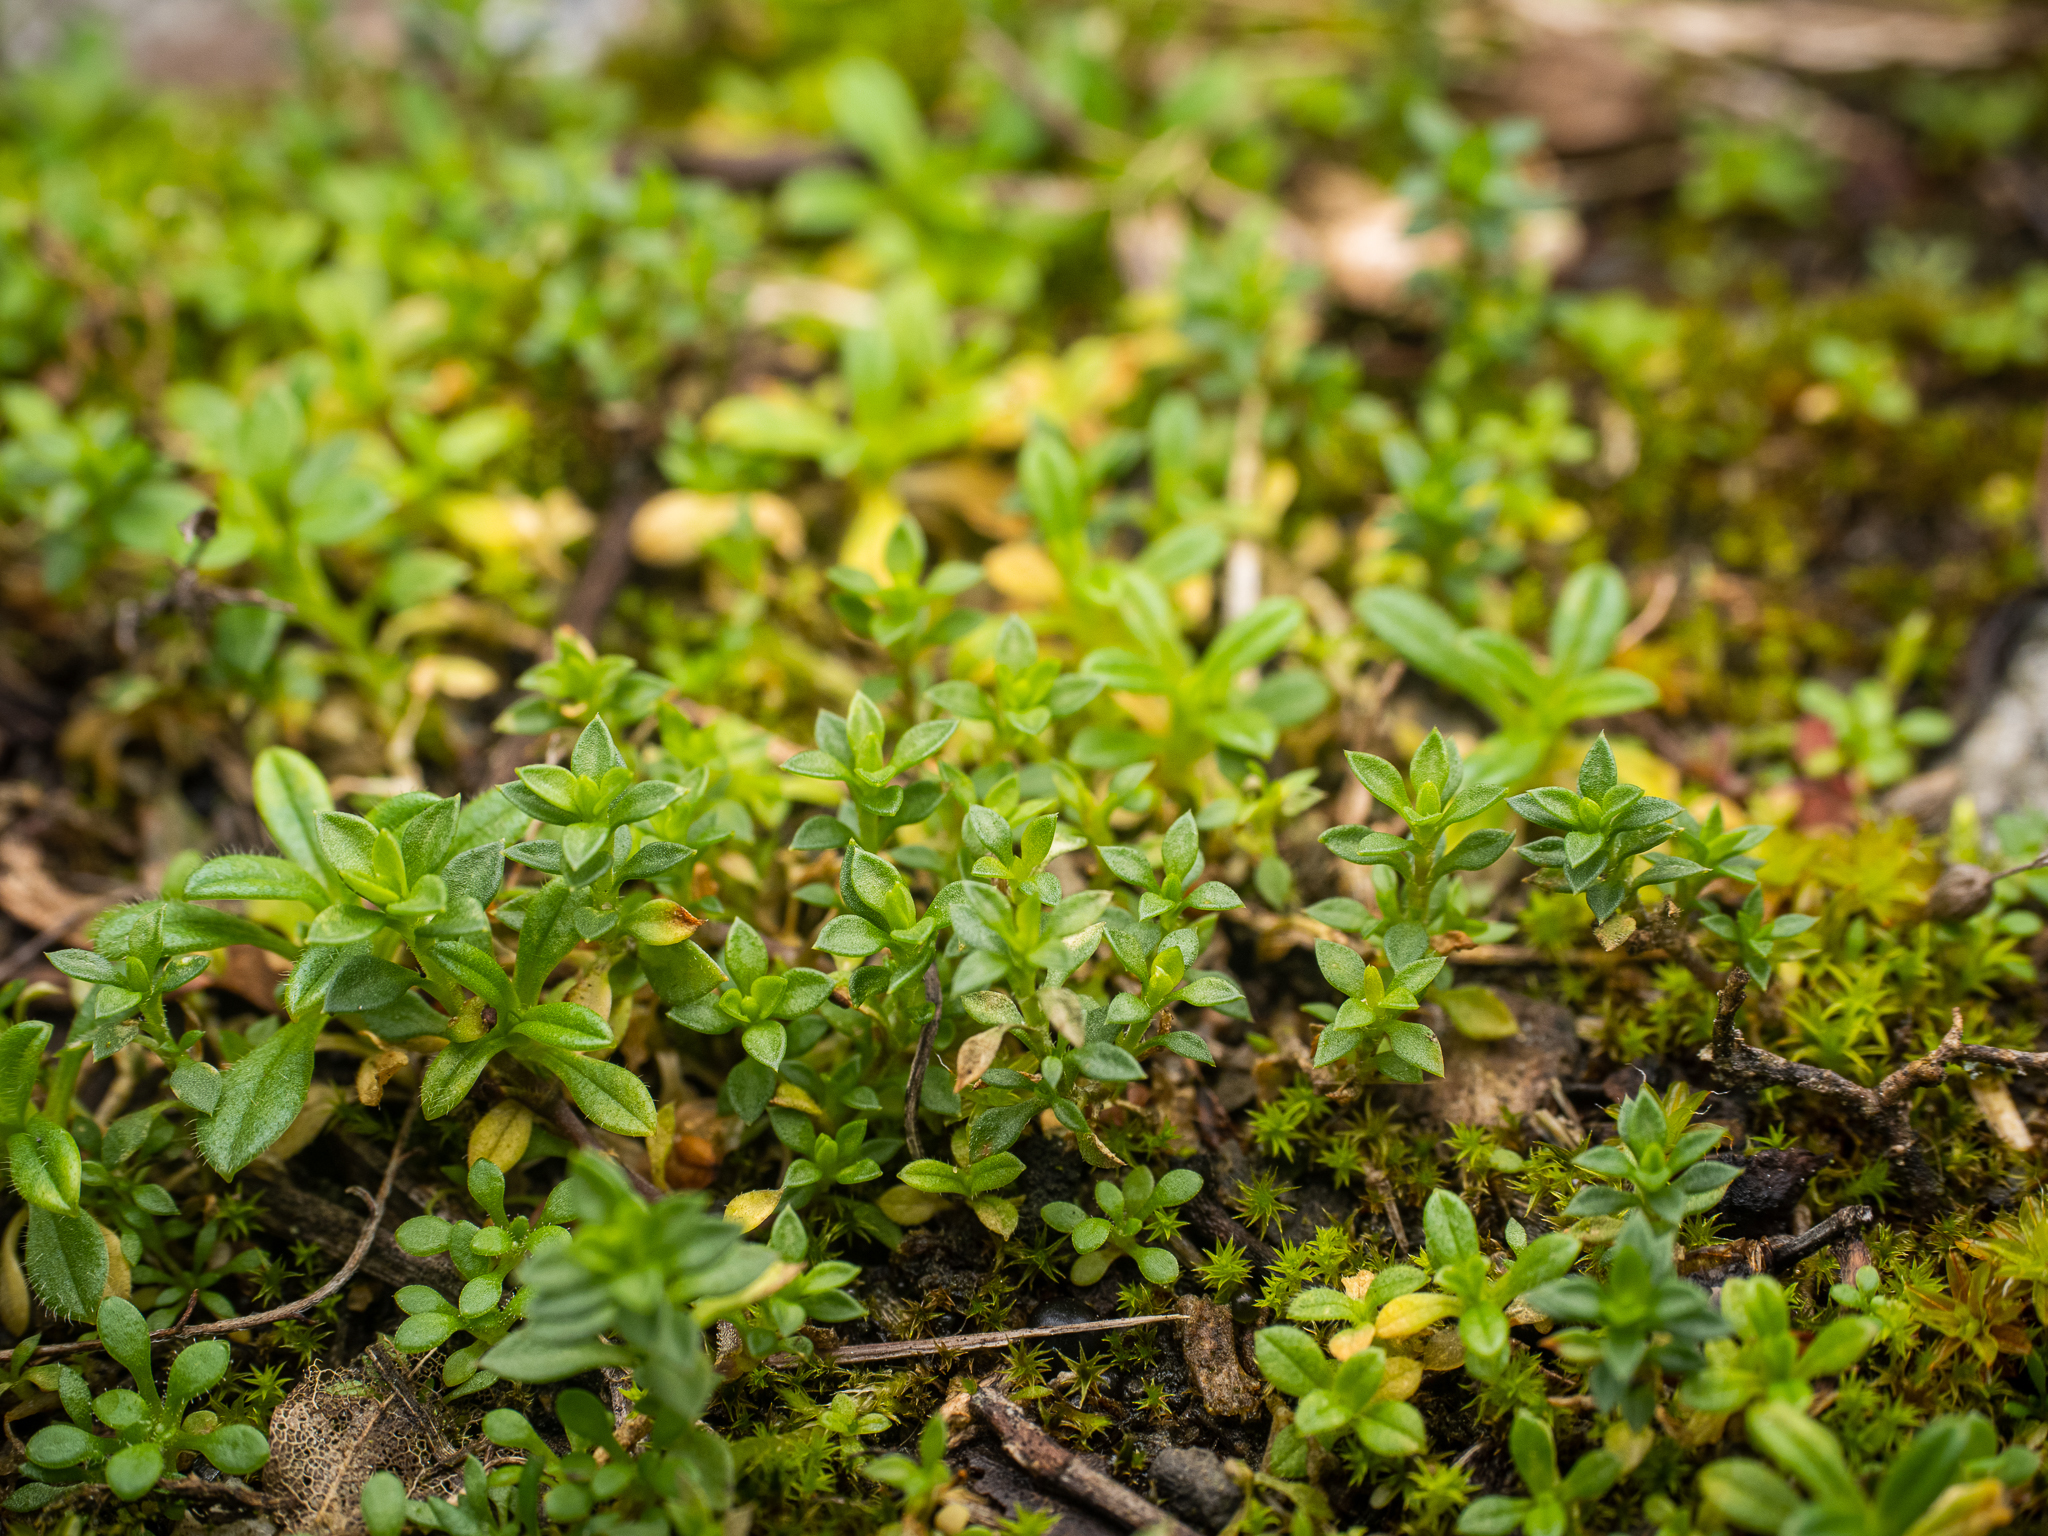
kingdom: Plantae
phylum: Tracheophyta
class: Magnoliopsida
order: Caryophyllales
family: Caryophyllaceae
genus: Arenaria
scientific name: Arenaria serpyllifolia
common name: Thyme-leaved sandwort
